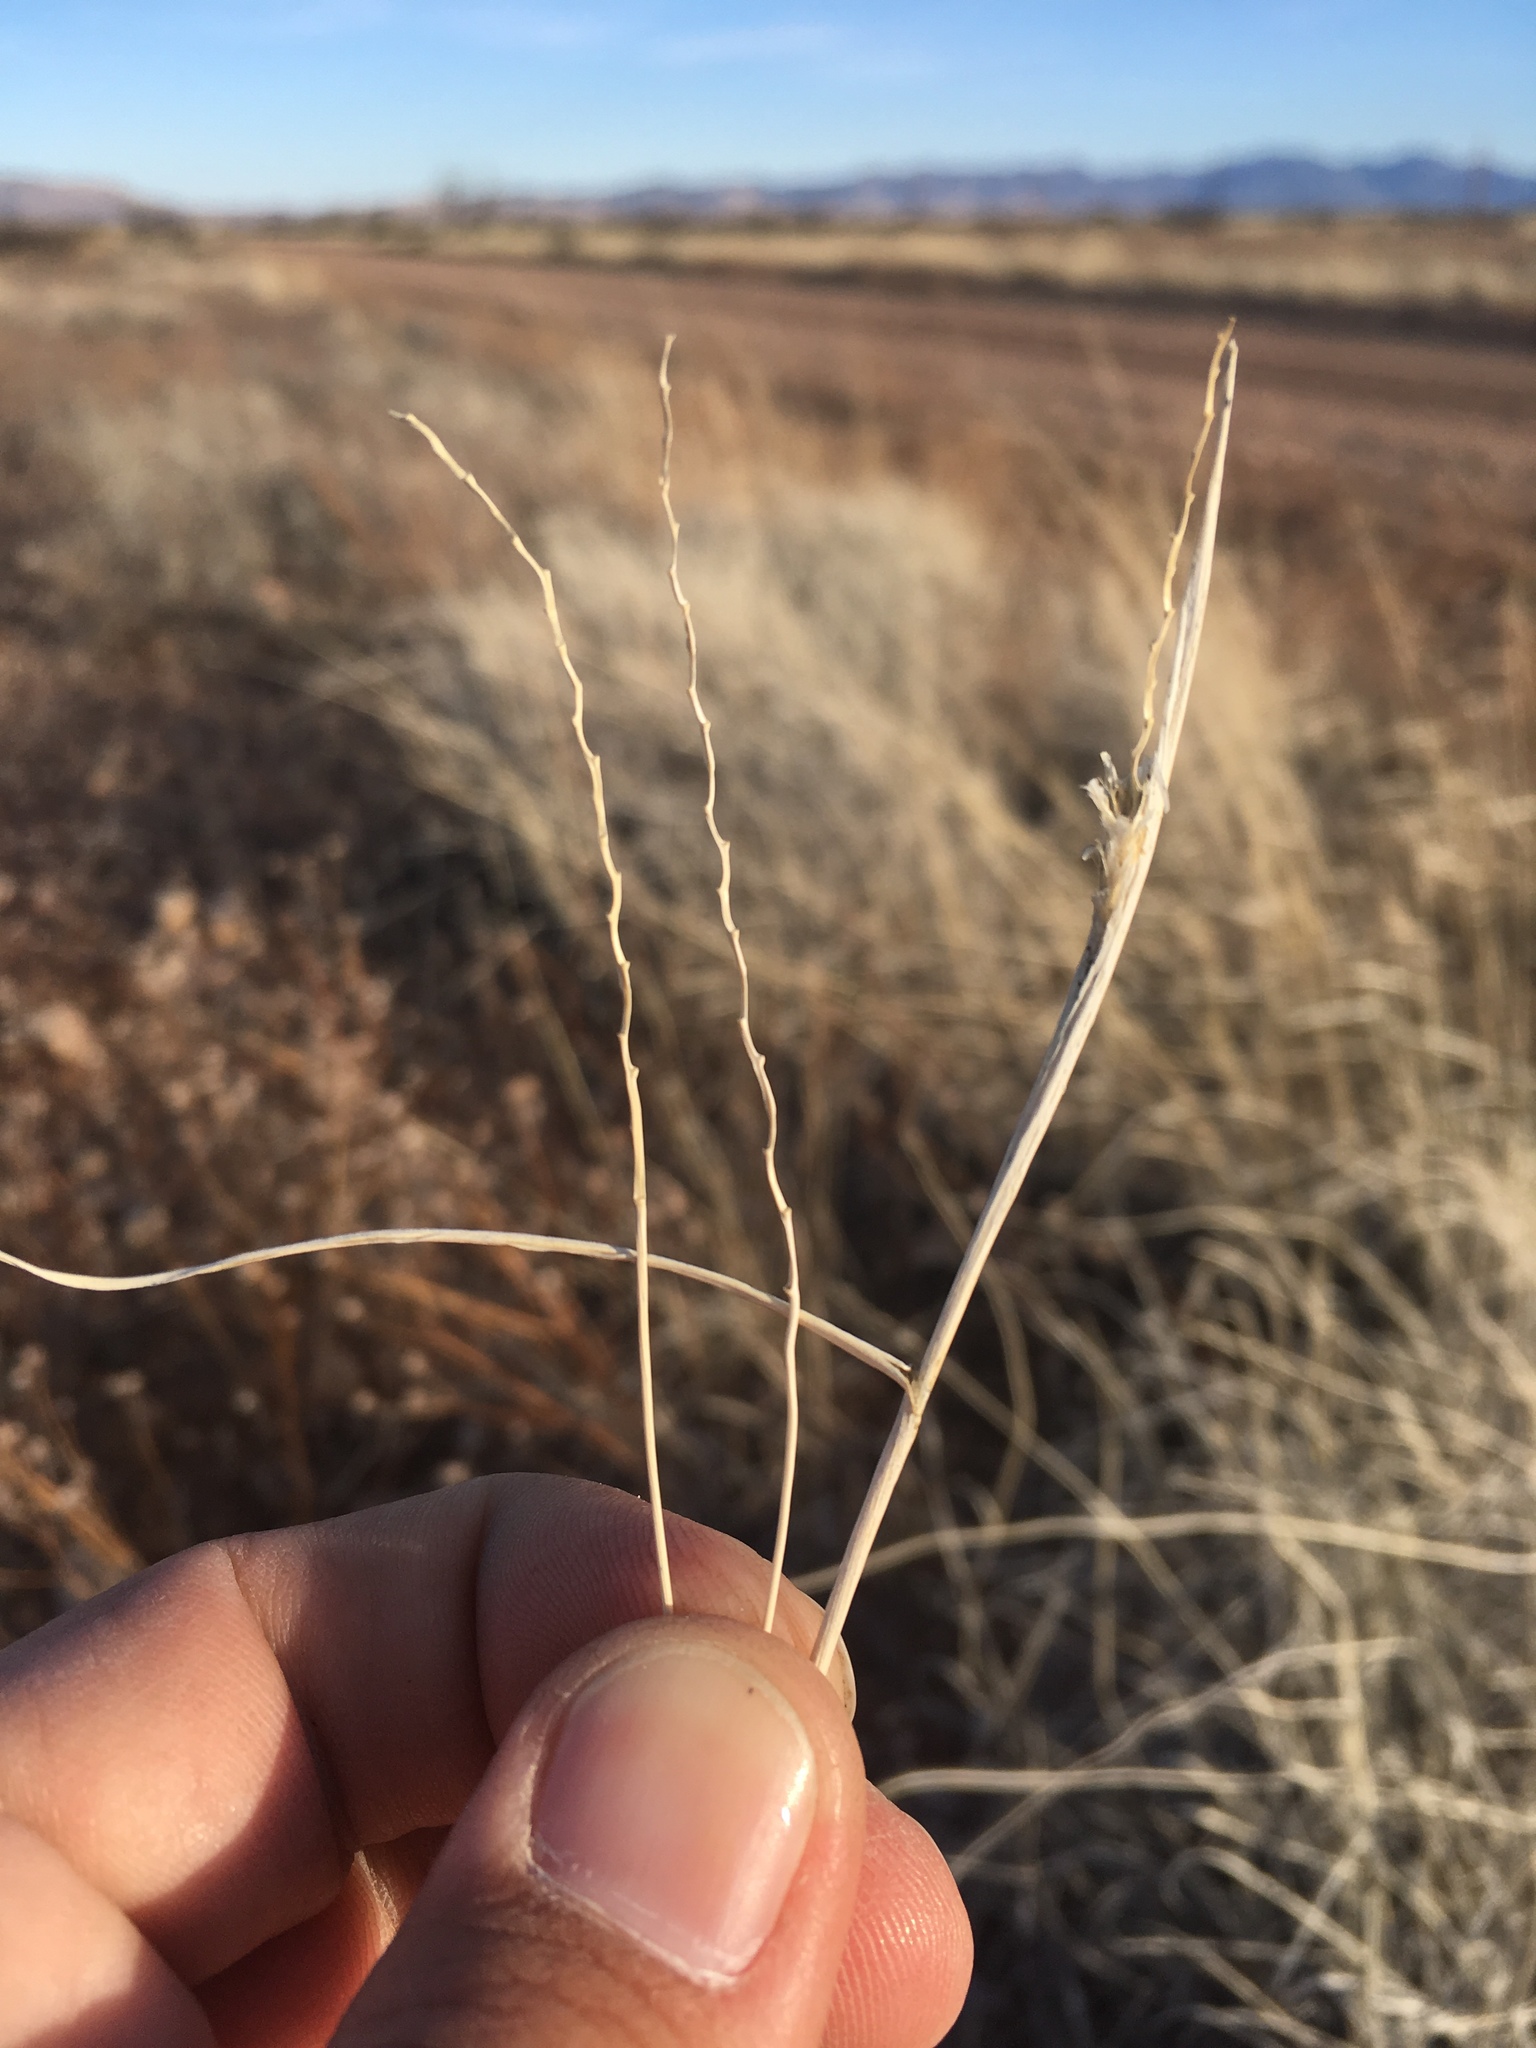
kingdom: Plantae
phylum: Tracheophyta
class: Liliopsida
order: Poales
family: Poaceae
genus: Hilaria
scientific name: Hilaria mutica
